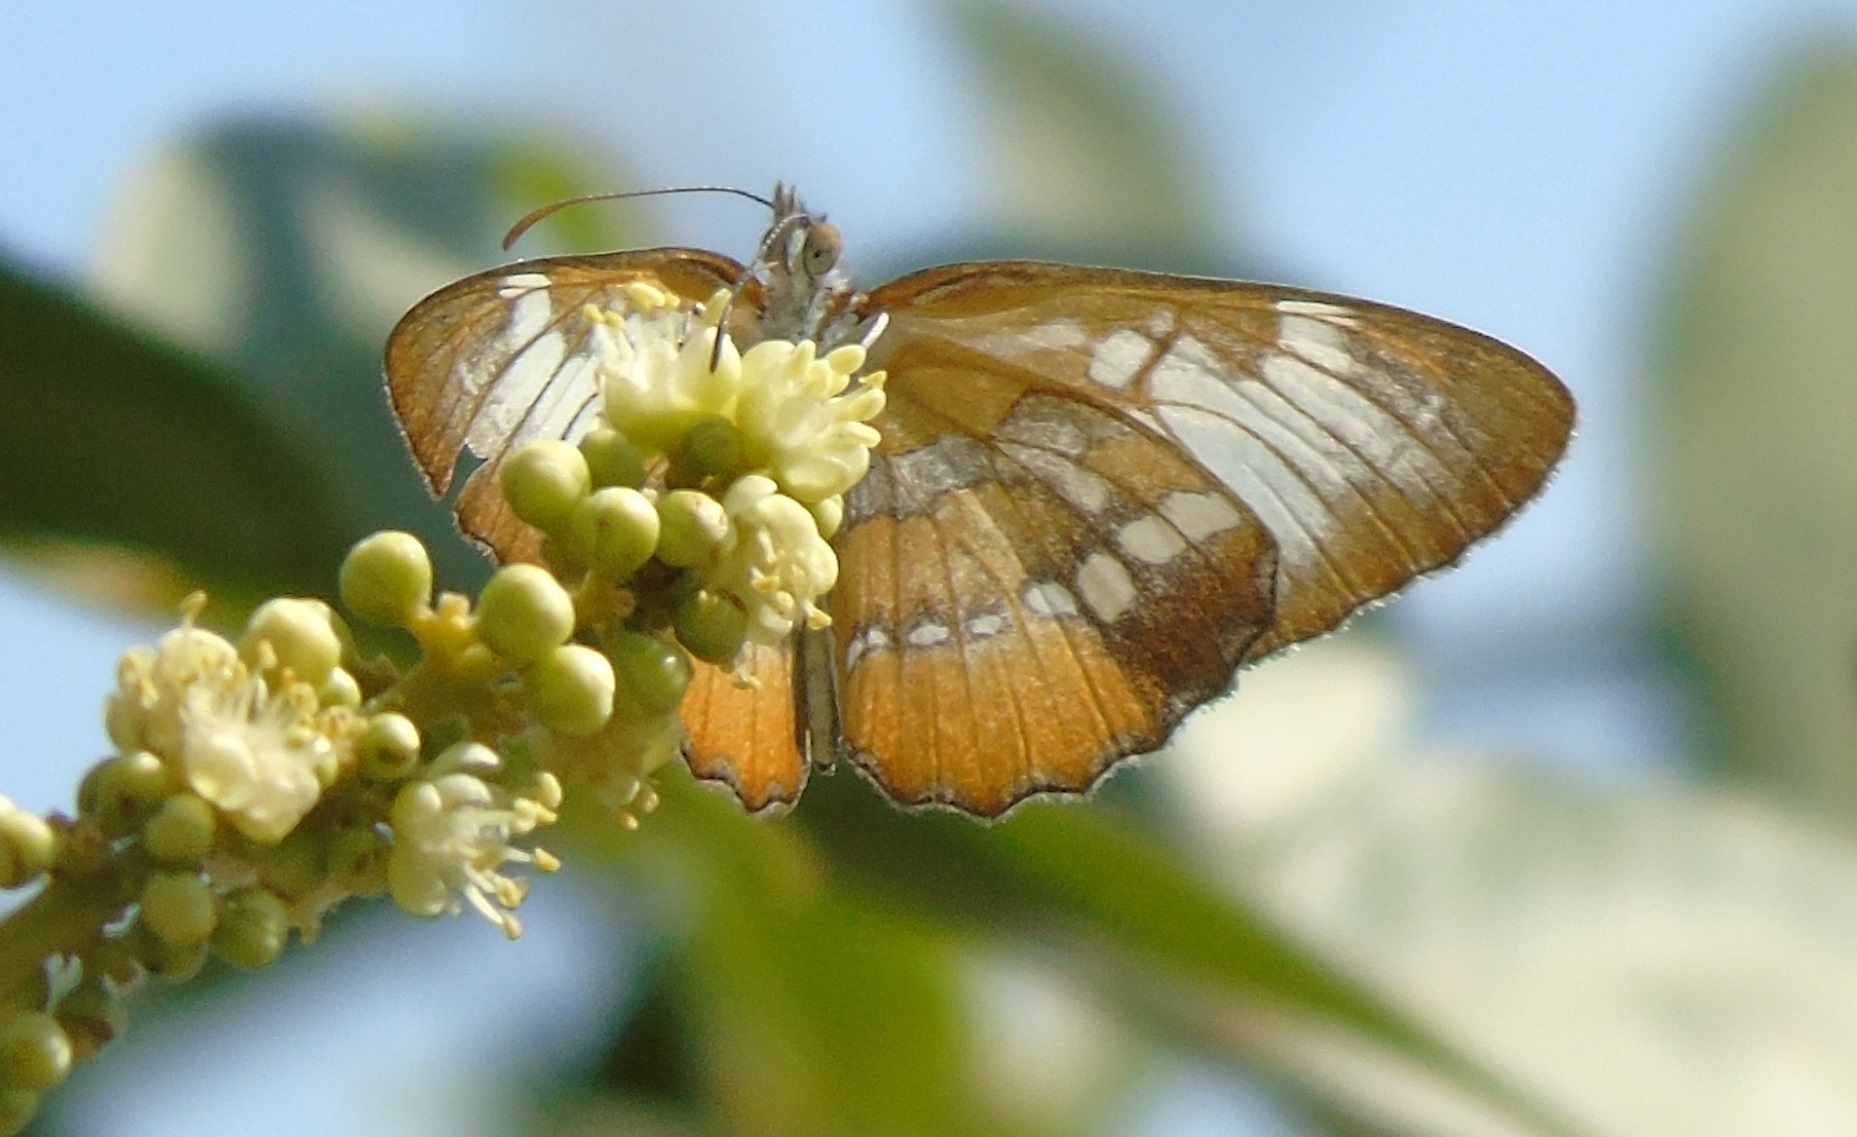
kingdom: Animalia
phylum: Arthropoda
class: Insecta
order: Lepidoptera
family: Nymphalidae
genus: Mestra
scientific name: Mestra amymone
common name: Common mestra
